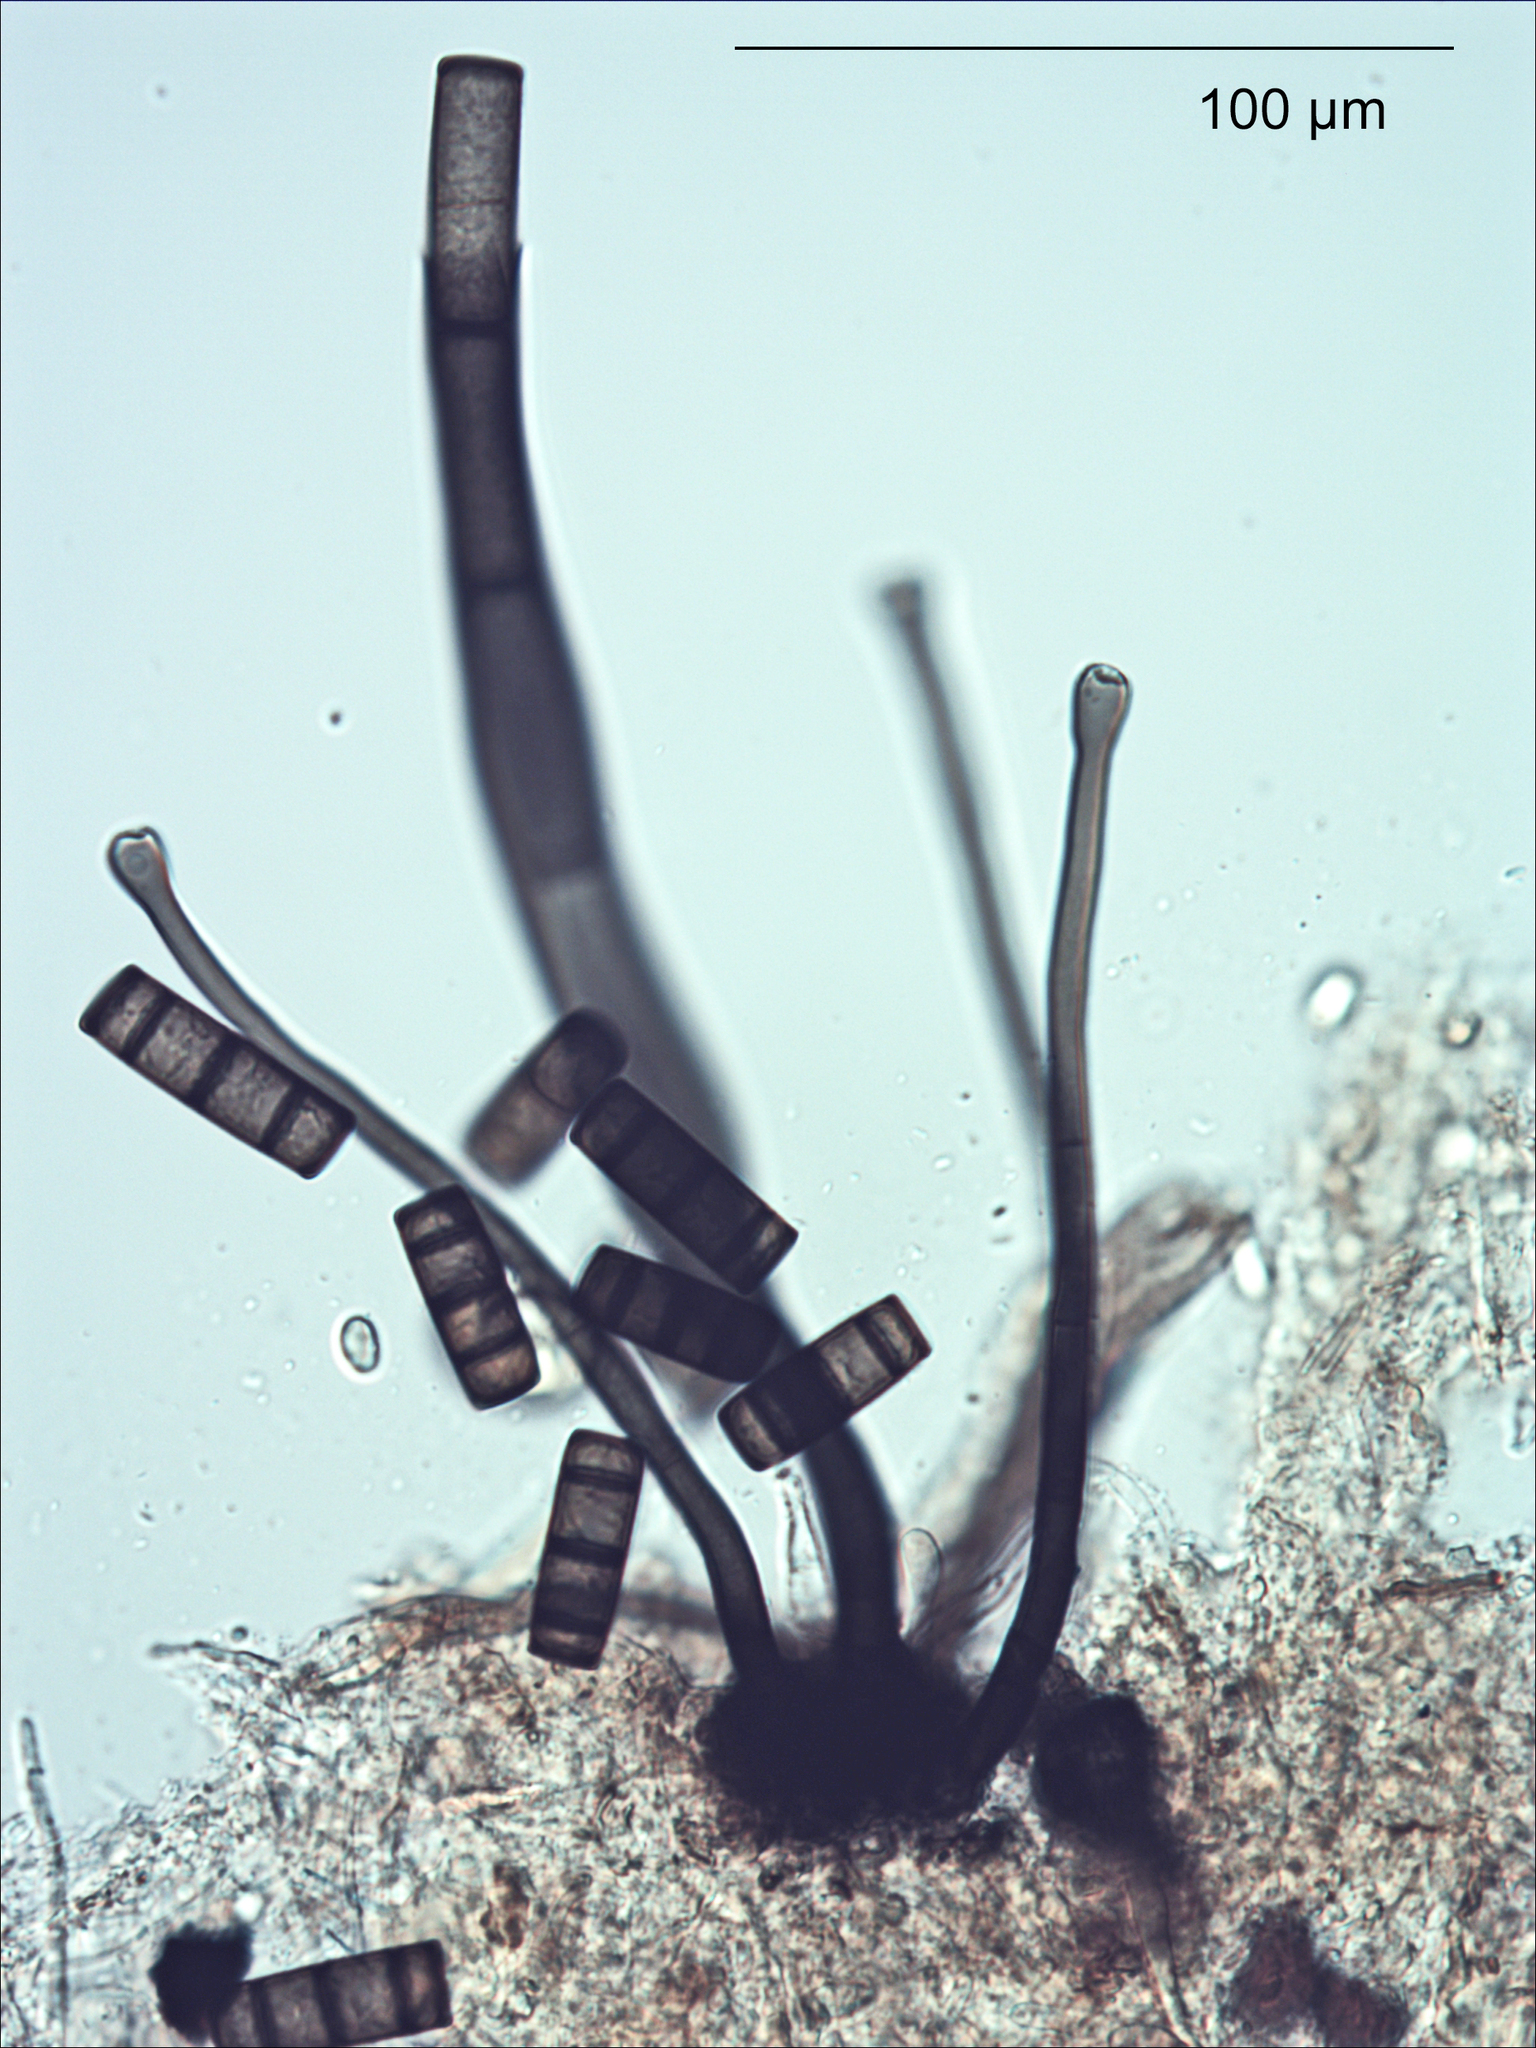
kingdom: Fungi
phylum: Ascomycota
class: Sordariomycetes
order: Chaetosphaeriales
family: Chaetosphaeriaceae
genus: Melanochaeta
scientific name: Melanochaeta aotearoae
